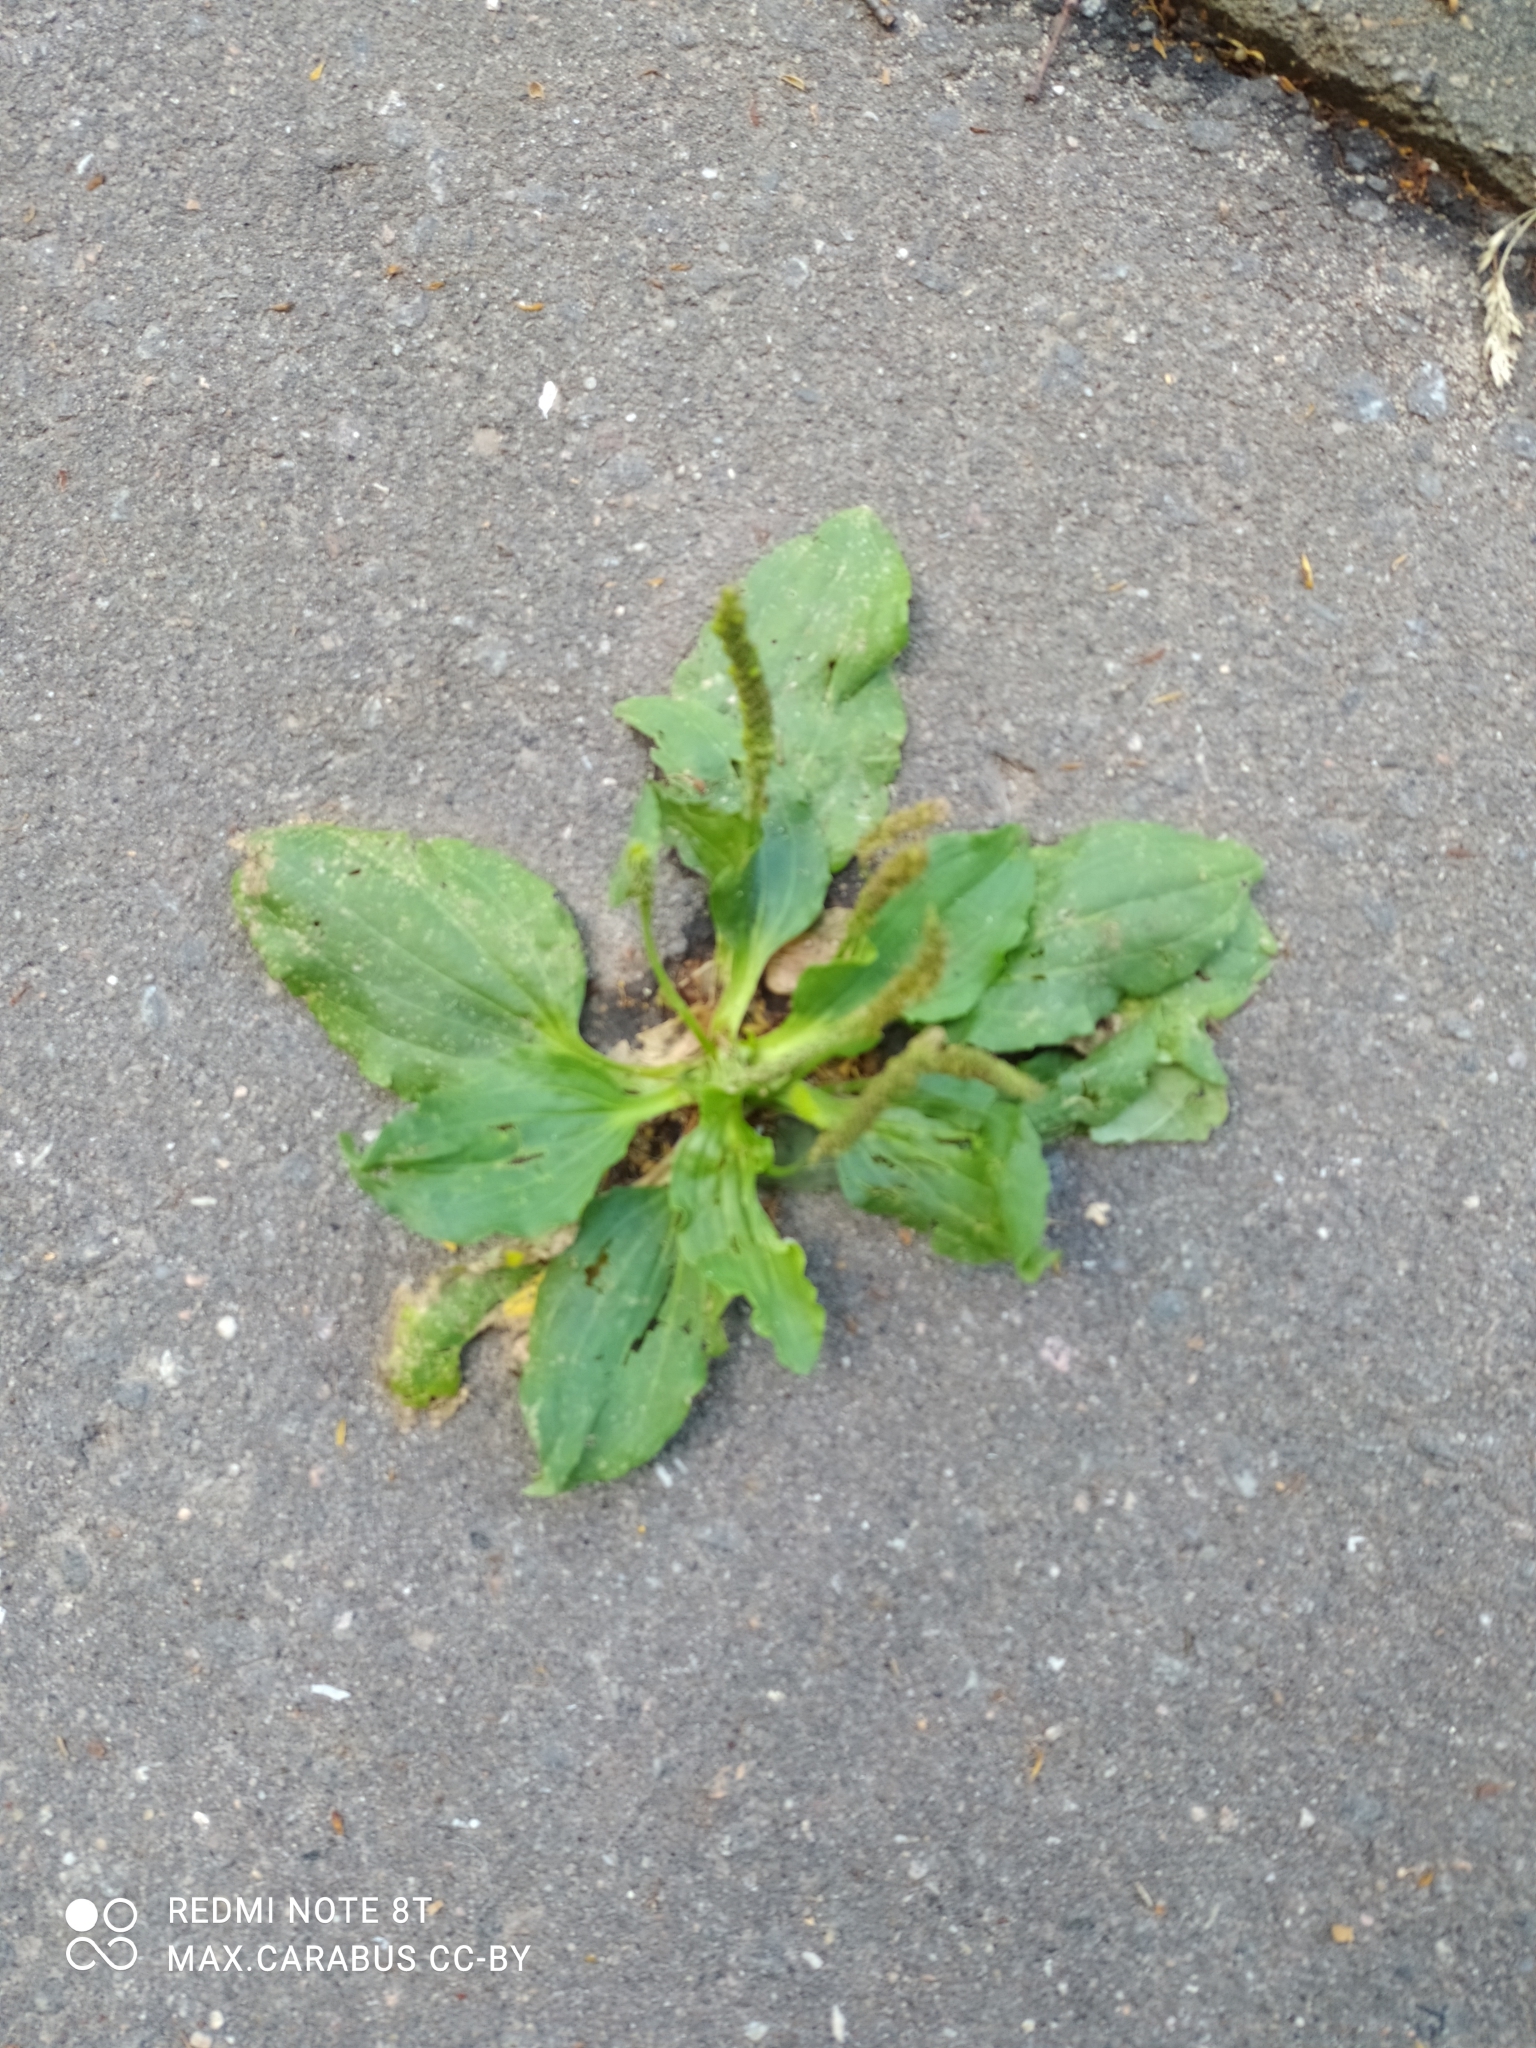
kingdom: Plantae
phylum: Tracheophyta
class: Magnoliopsida
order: Lamiales
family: Plantaginaceae
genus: Plantago
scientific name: Plantago major
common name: Common plantain
